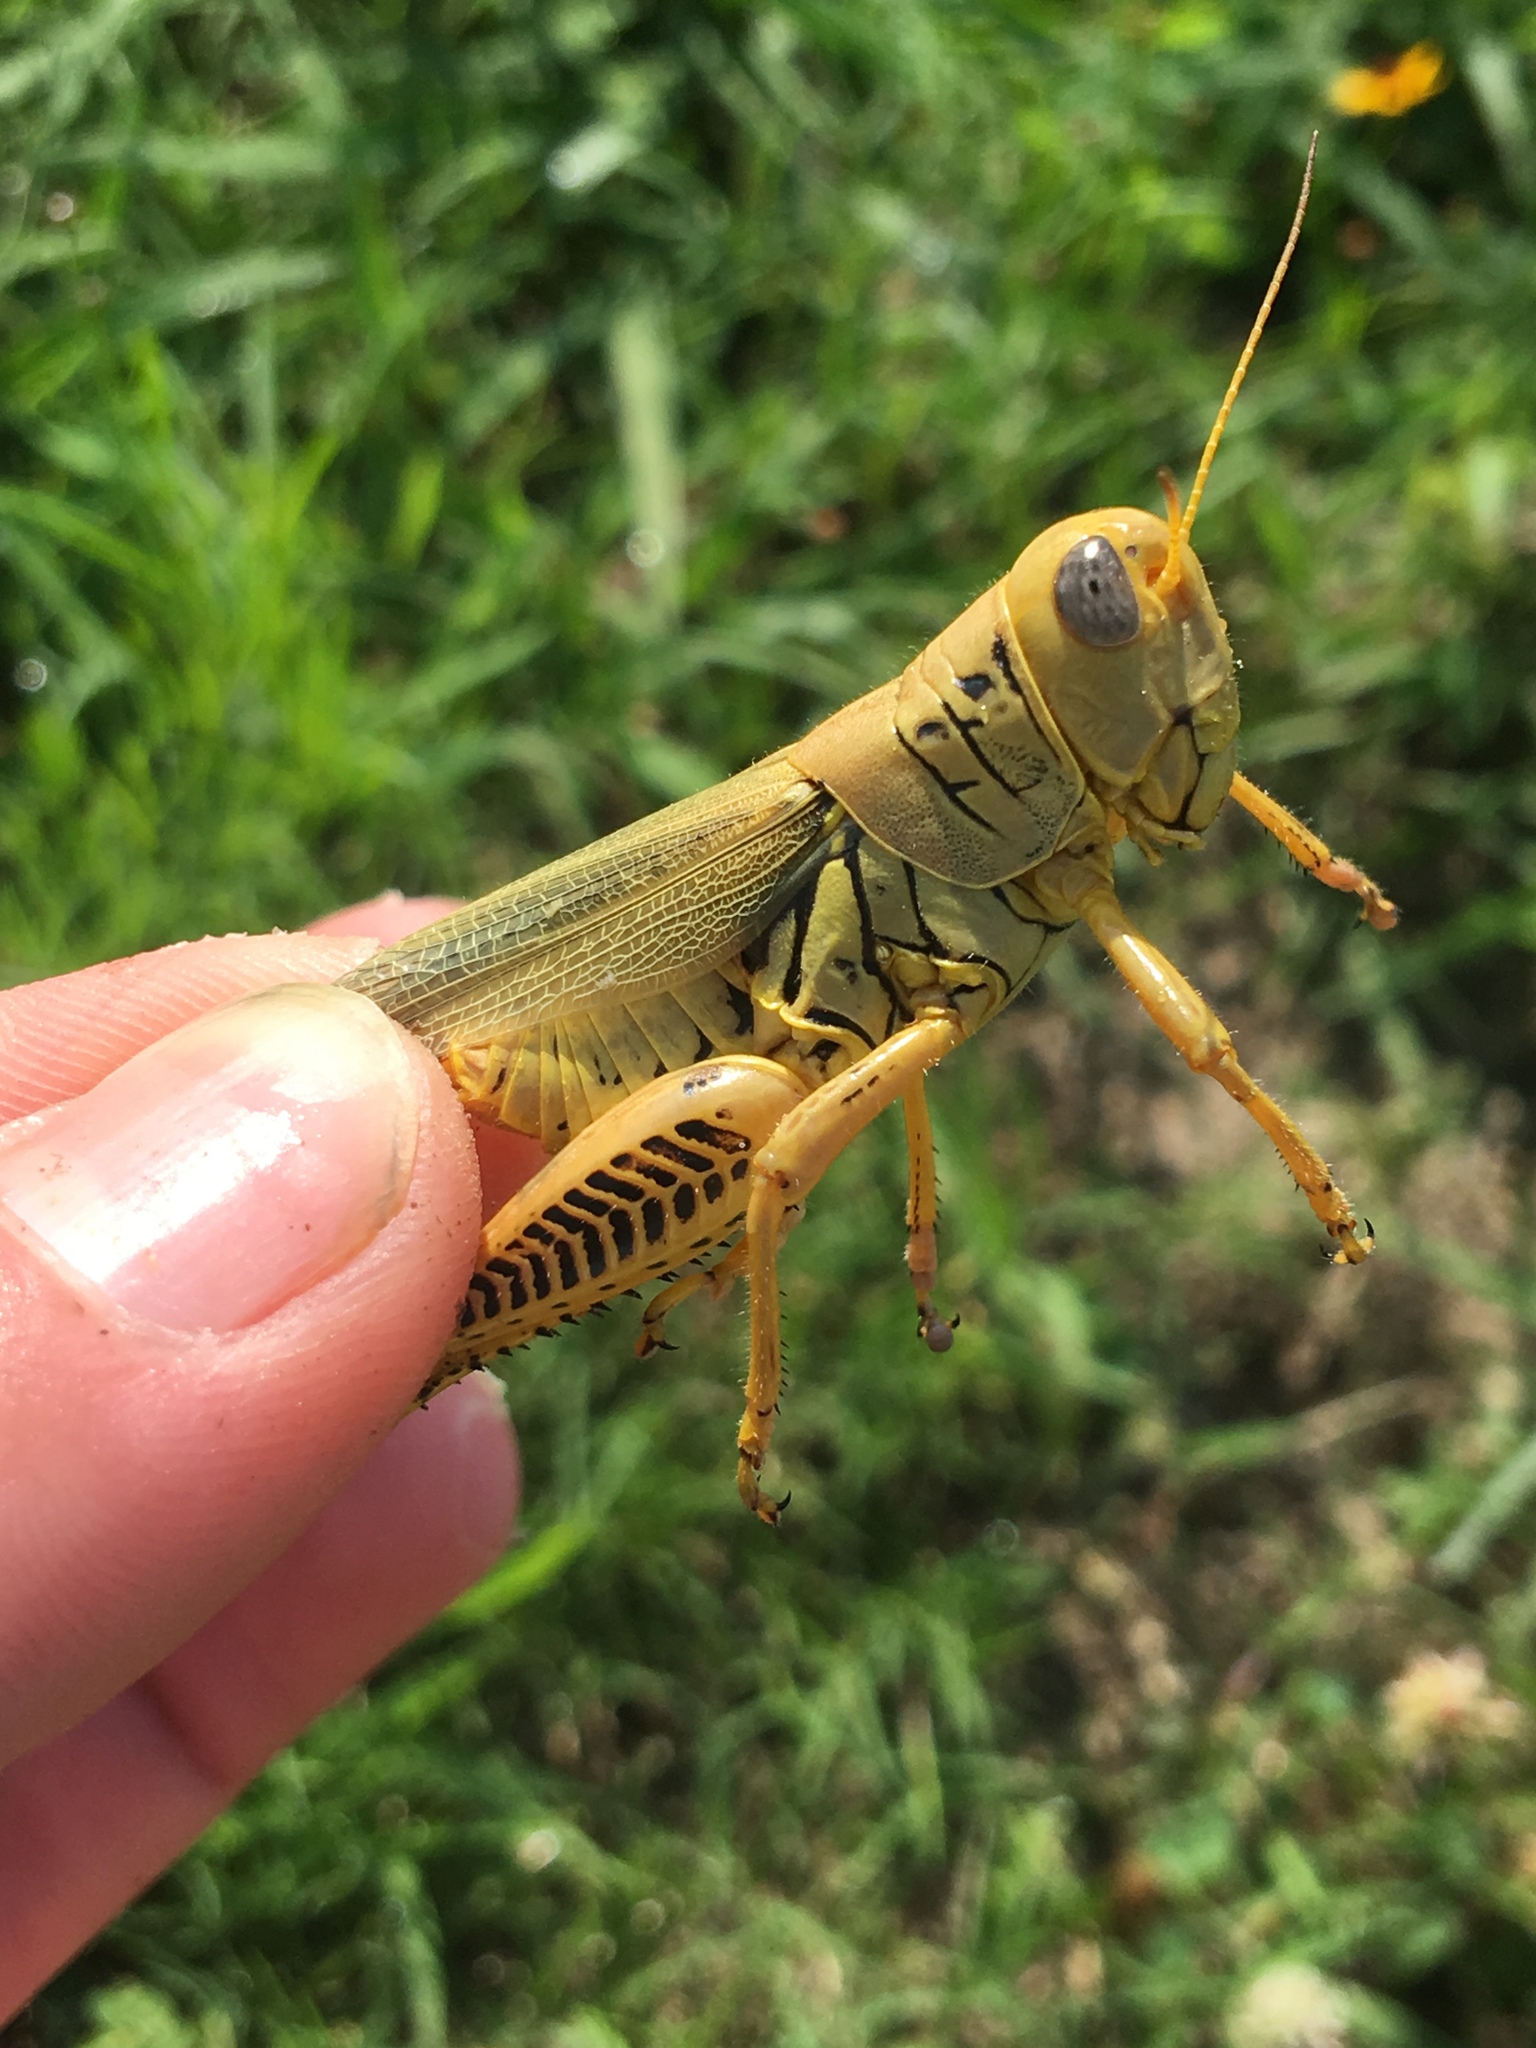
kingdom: Animalia
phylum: Arthropoda
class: Insecta
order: Orthoptera
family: Acrididae
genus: Melanoplus
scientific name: Melanoplus differentialis
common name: Differential grasshopper
